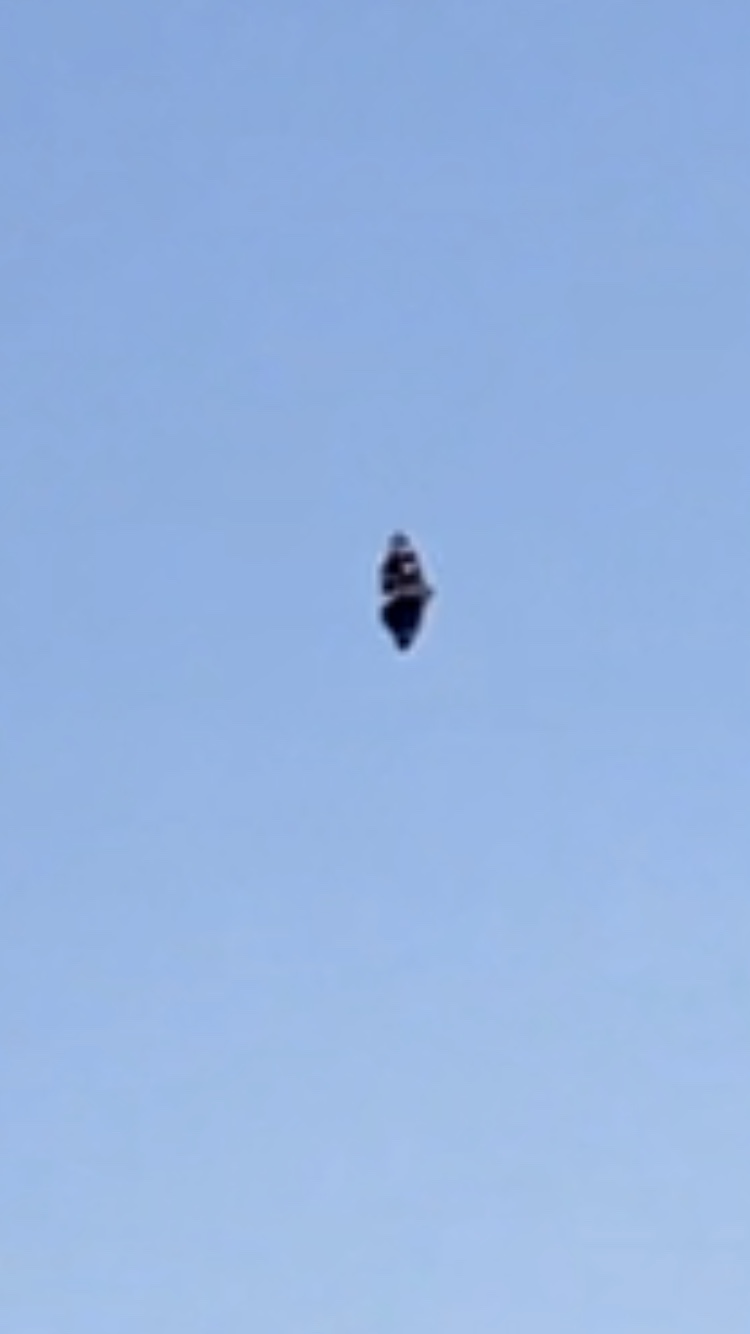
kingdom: Animalia
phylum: Arthropoda
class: Insecta
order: Lepidoptera
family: Nymphalidae
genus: Vanessa
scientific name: Vanessa atalanta
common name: Red admiral
